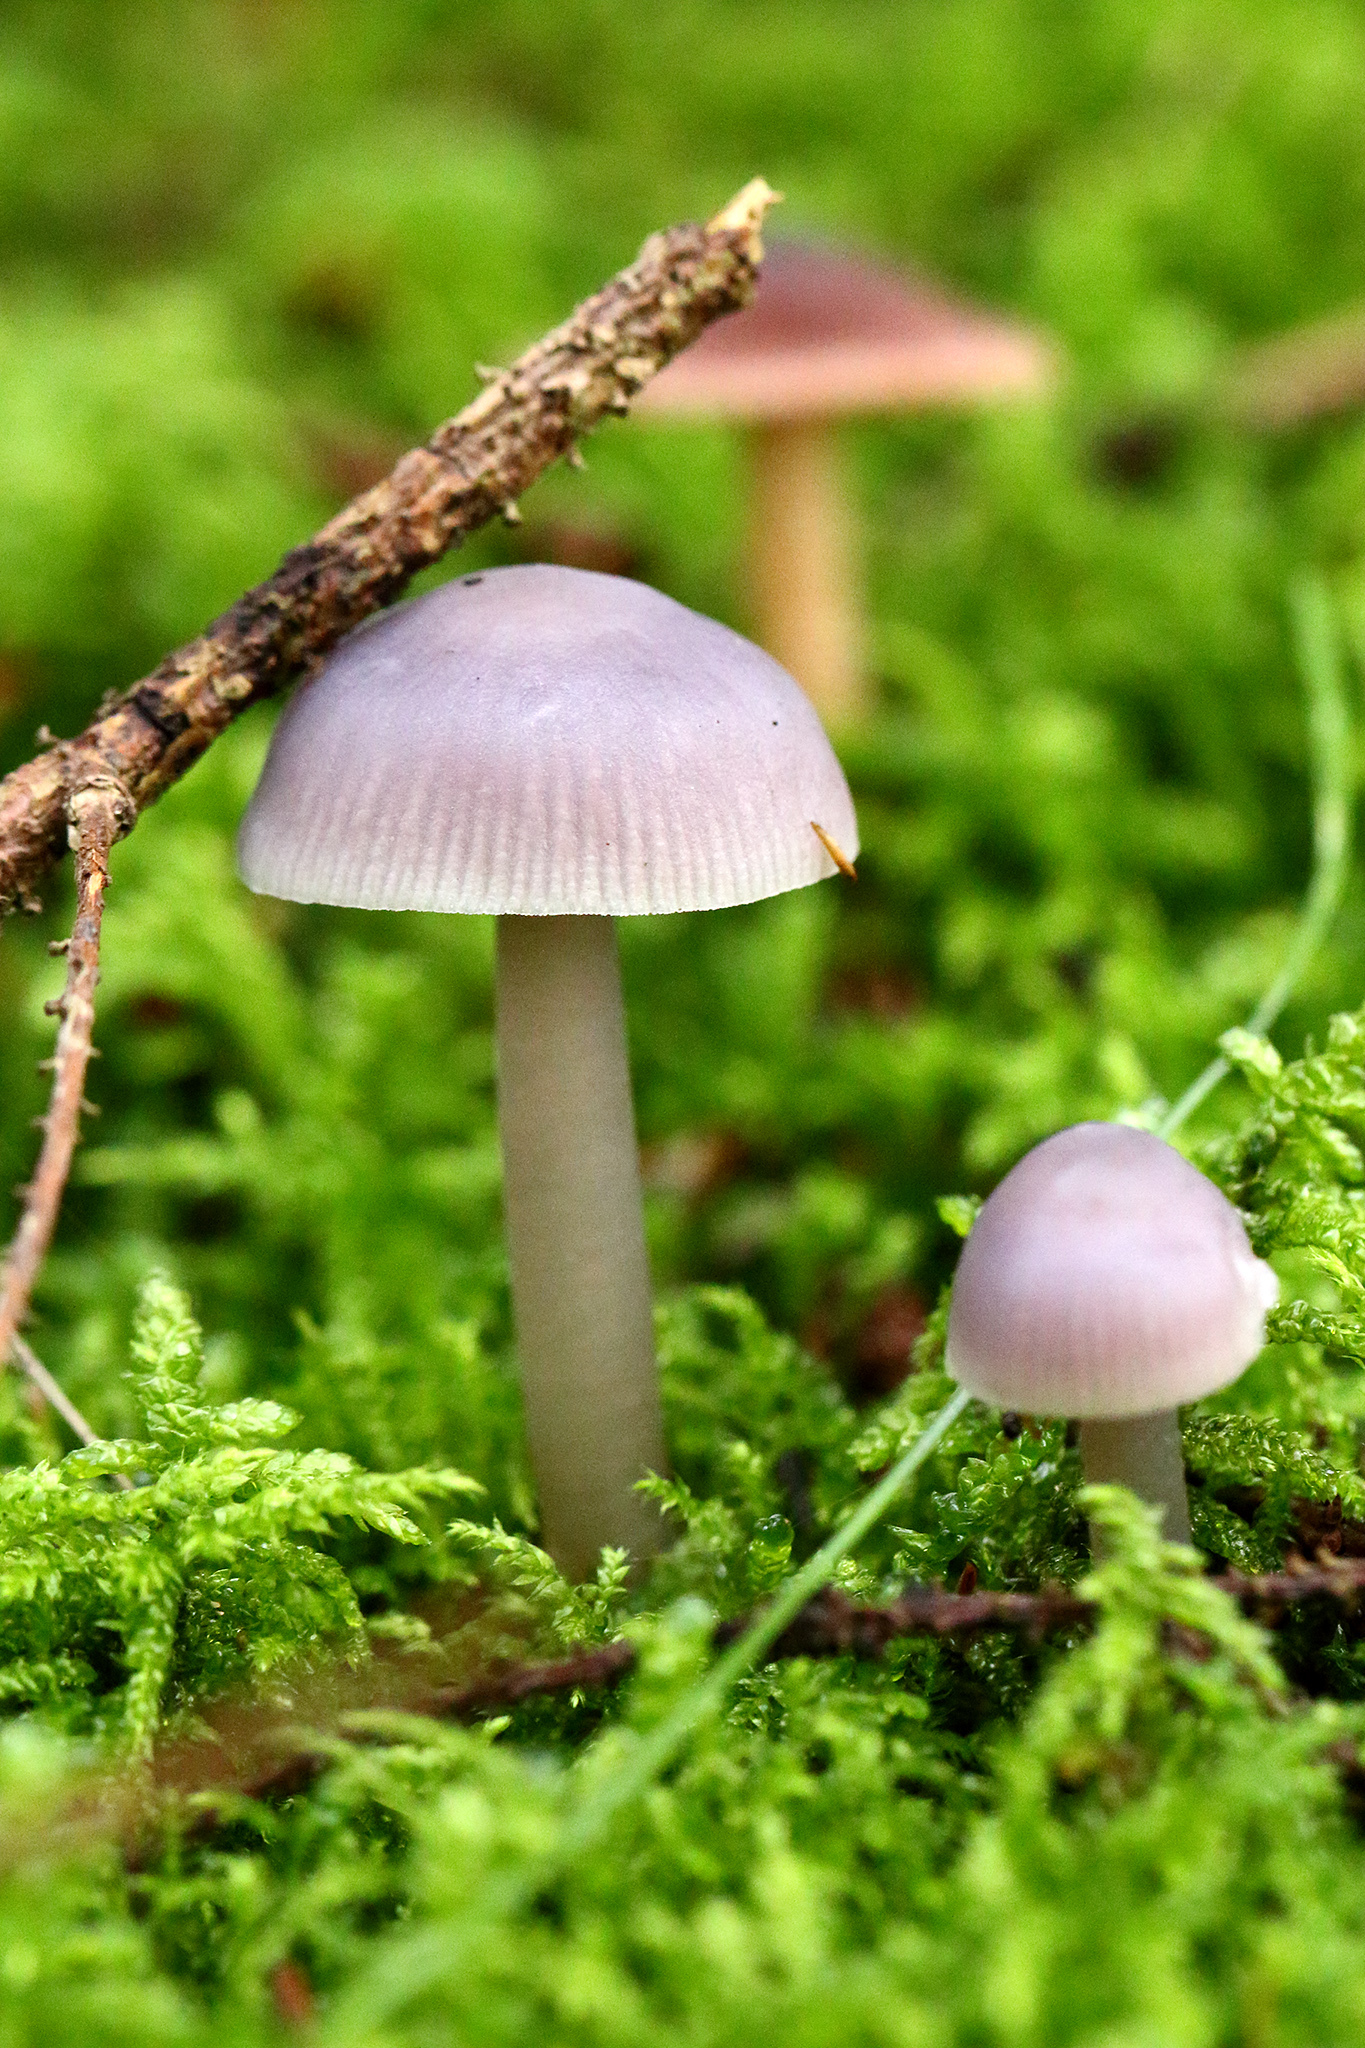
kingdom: Fungi
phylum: Basidiomycota
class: Agaricomycetes
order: Agaricales
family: Mycenaceae
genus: Mycena
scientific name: Mycena pura
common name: Lilac bonnet
